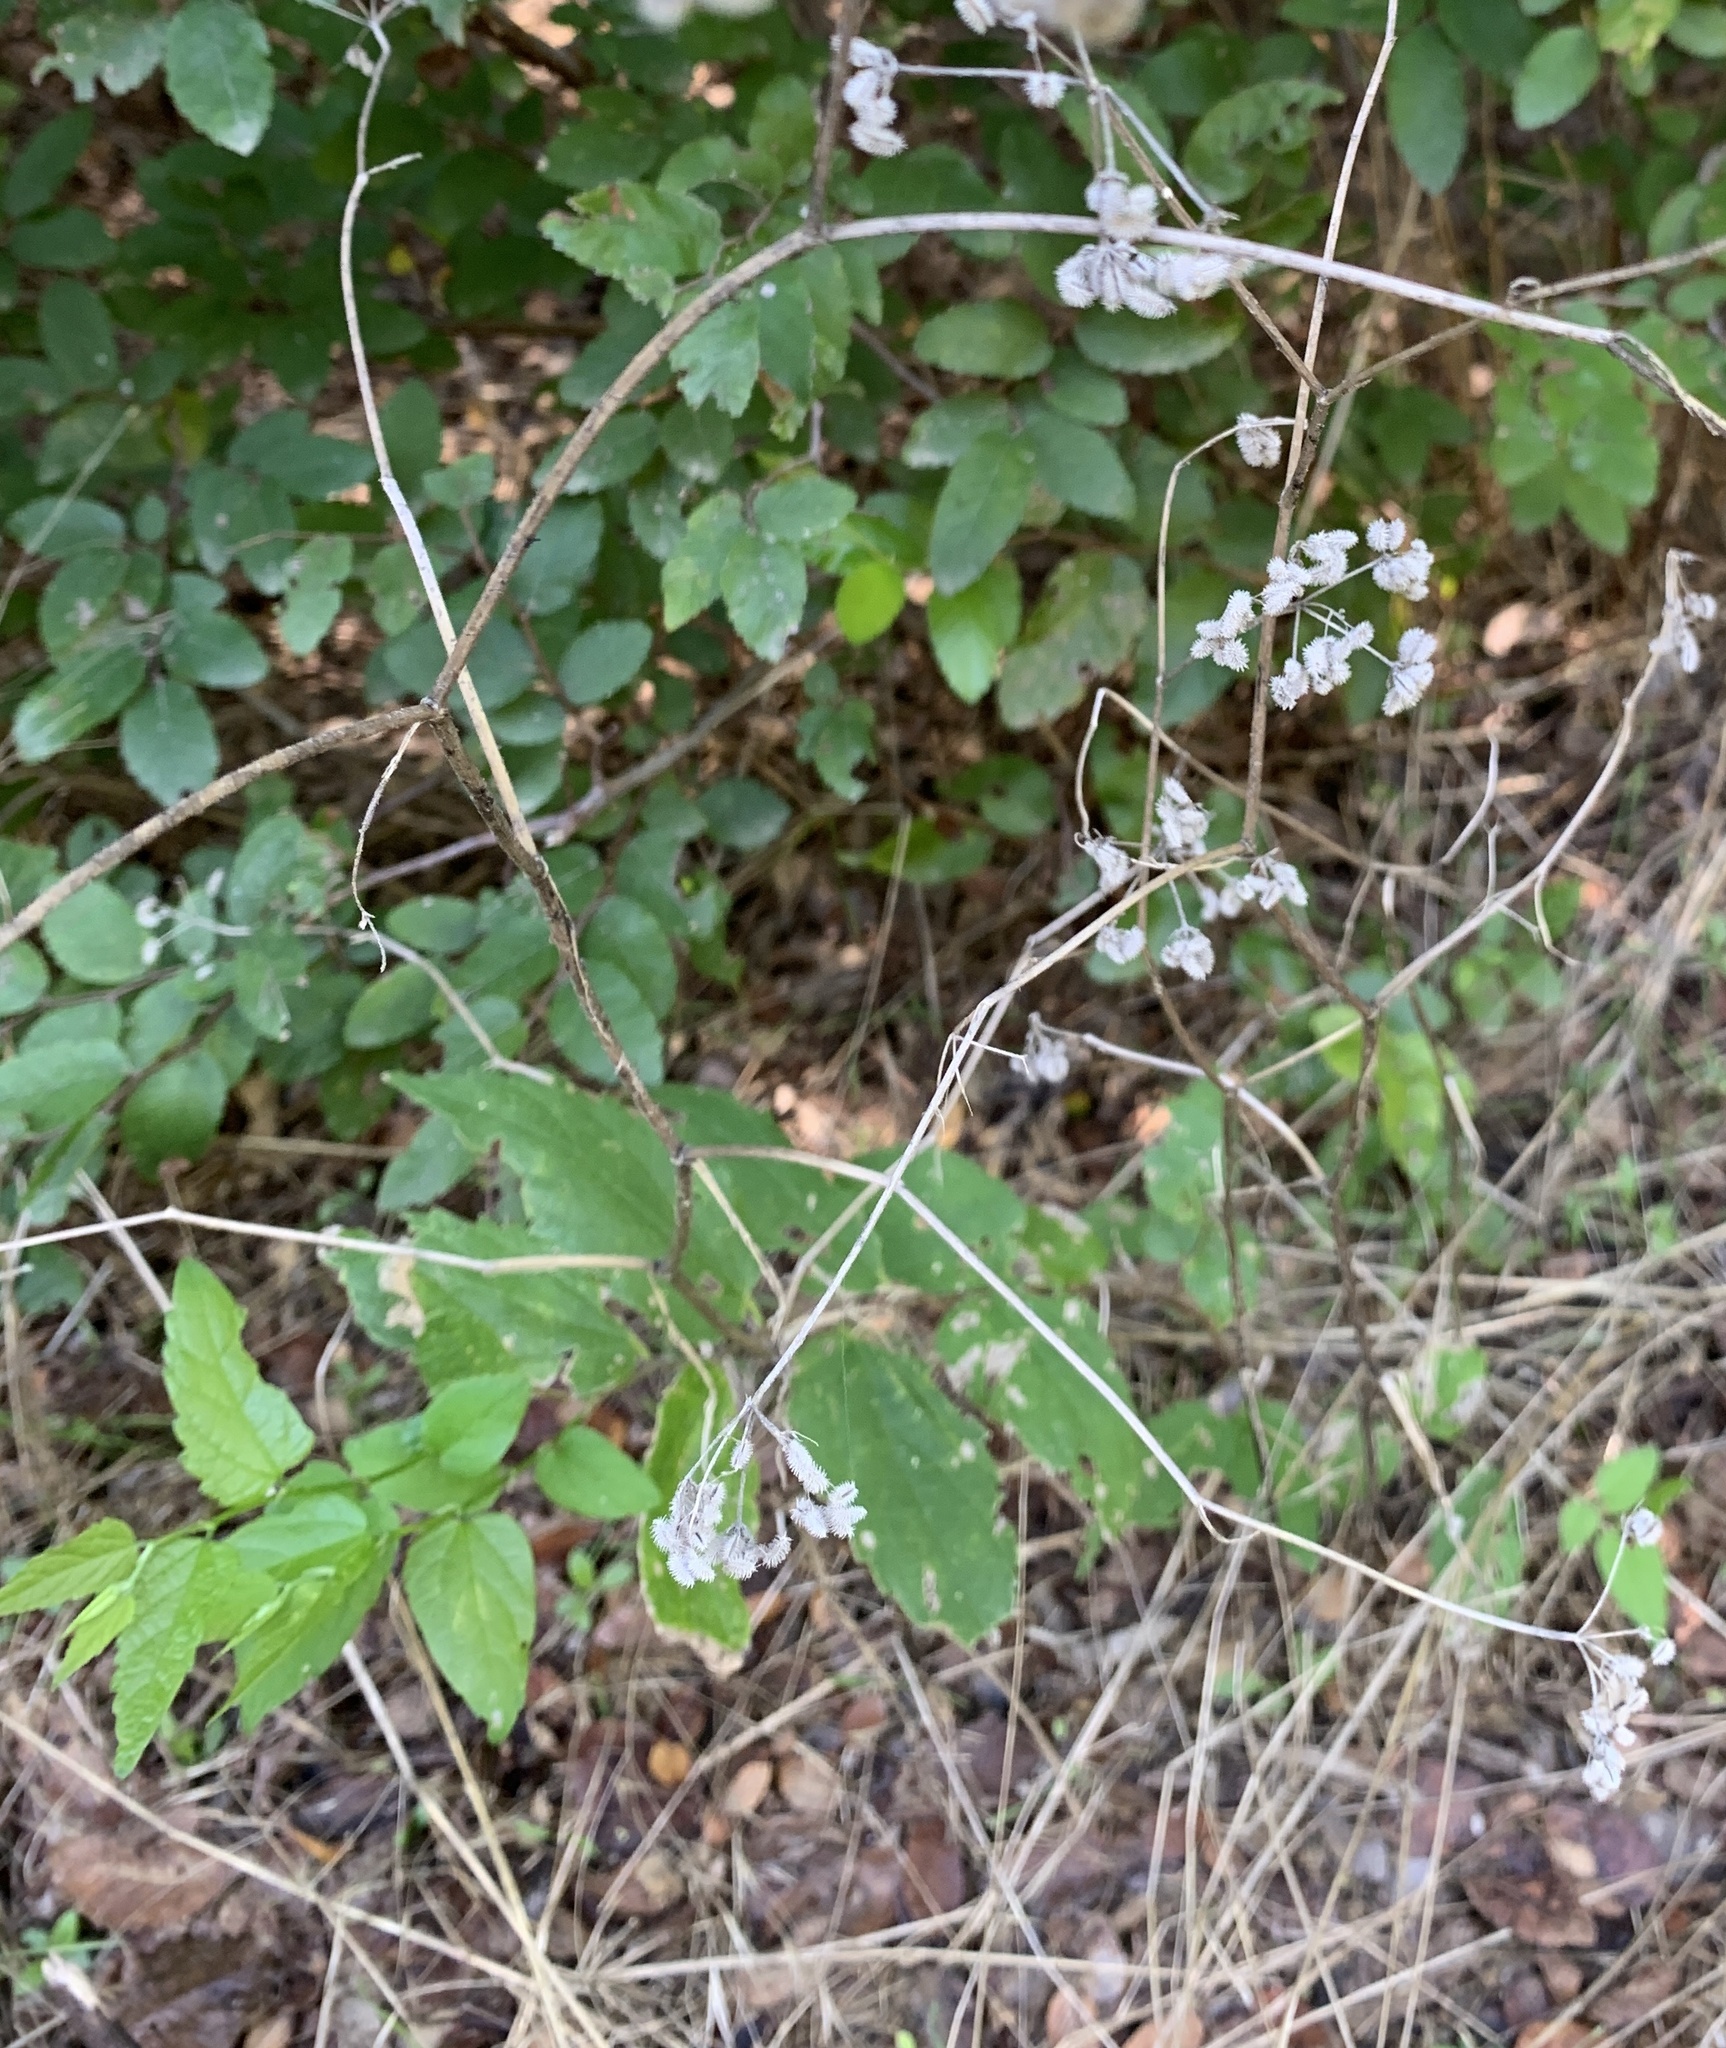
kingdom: Plantae
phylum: Tracheophyta
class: Magnoliopsida
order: Apiales
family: Apiaceae
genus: Torilis
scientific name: Torilis arvensis
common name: Spreading hedge-parsley
